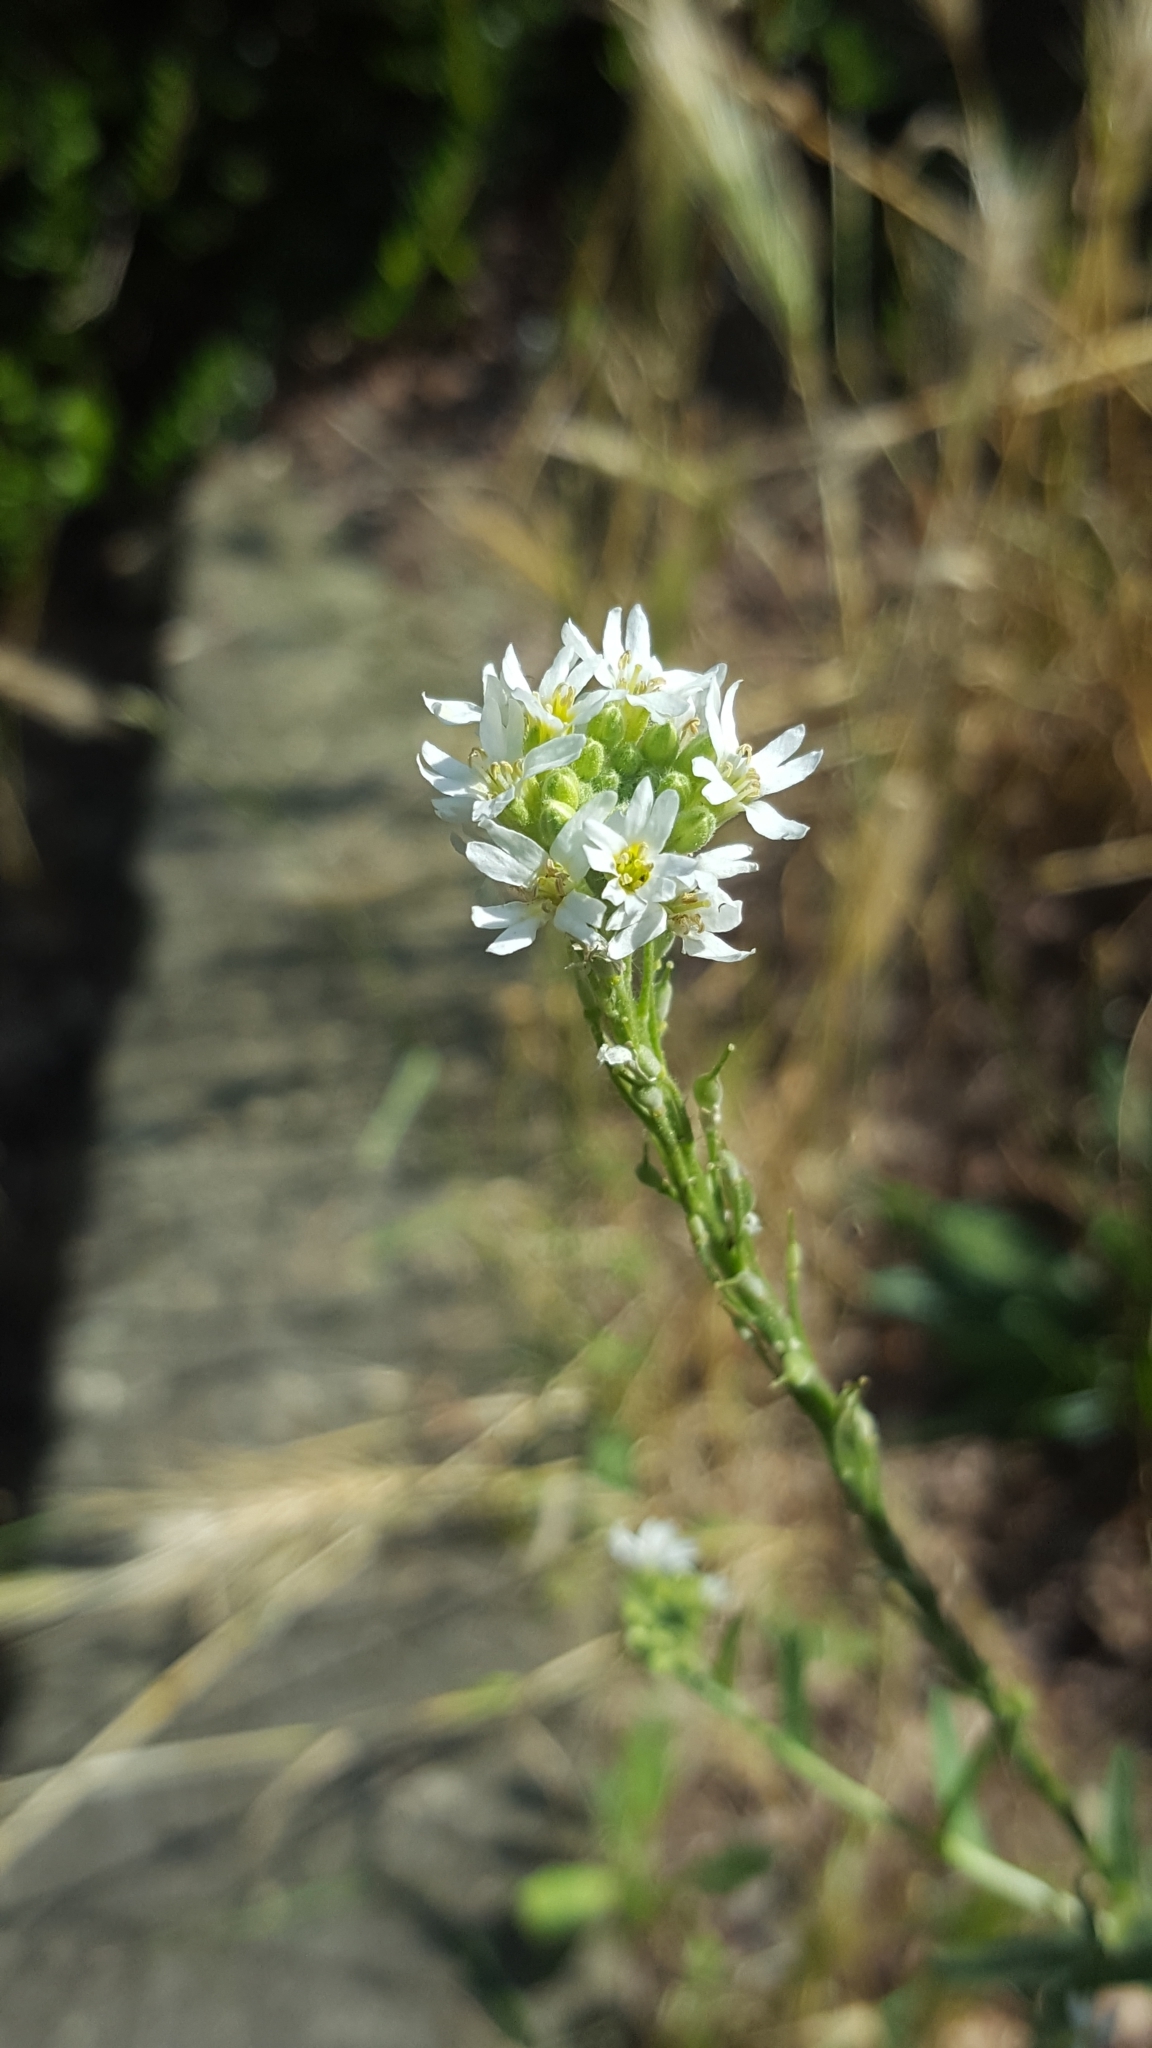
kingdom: Plantae
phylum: Tracheophyta
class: Magnoliopsida
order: Brassicales
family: Brassicaceae
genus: Berteroa
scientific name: Berteroa incana
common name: Hoary alison
